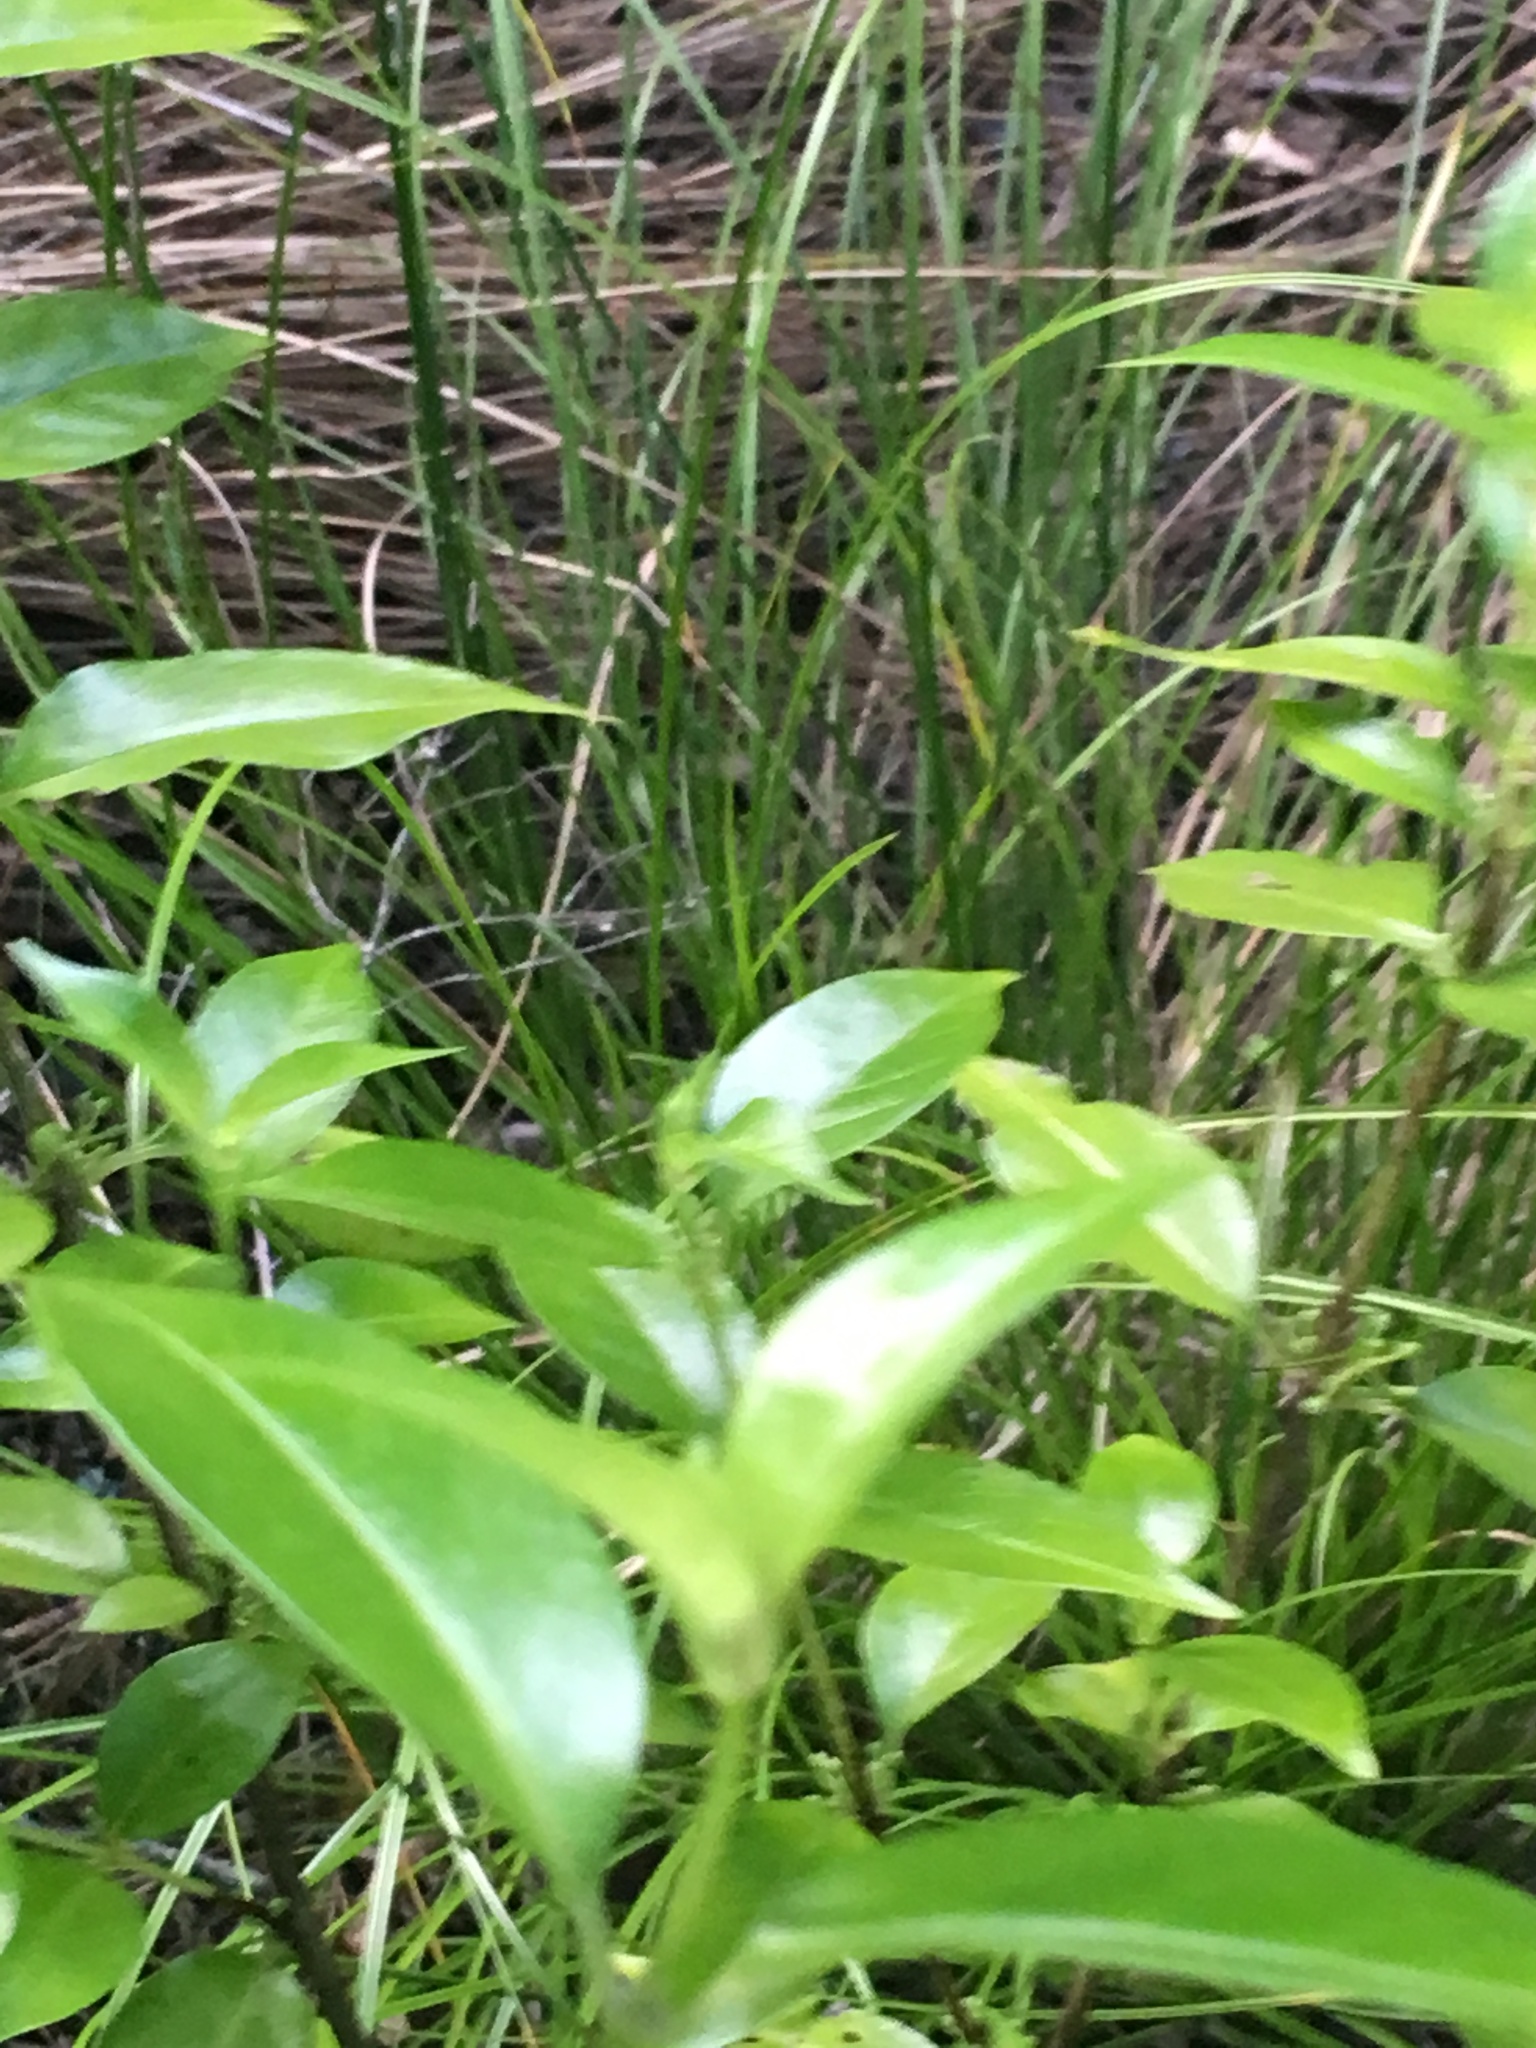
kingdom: Plantae
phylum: Tracheophyta
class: Magnoliopsida
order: Gentianales
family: Loganiaceae
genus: Geniostoma
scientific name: Geniostoma ligustrifolium
